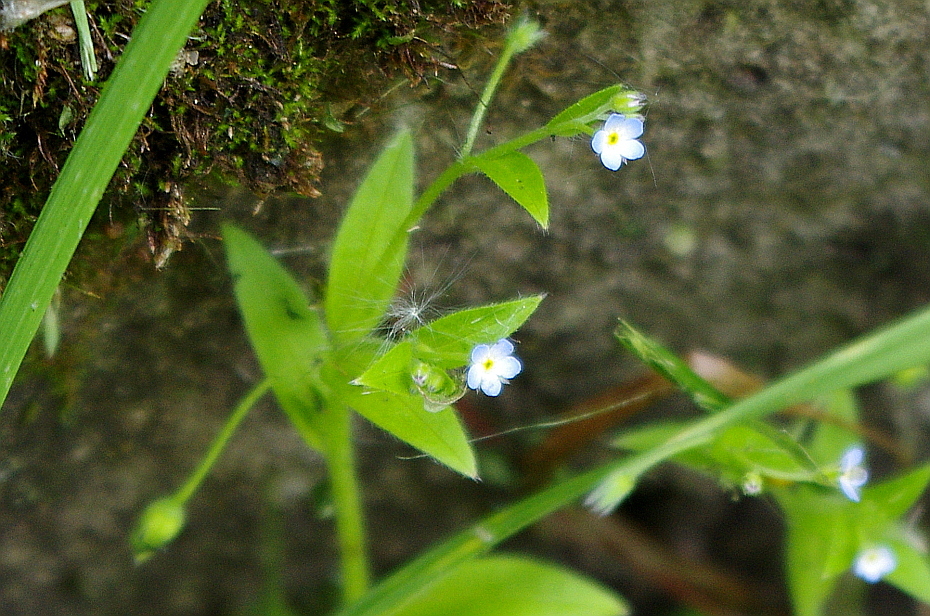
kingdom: Plantae
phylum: Tracheophyta
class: Magnoliopsida
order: Boraginales
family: Boraginaceae
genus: Myosotis
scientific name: Myosotis sparsiflora
